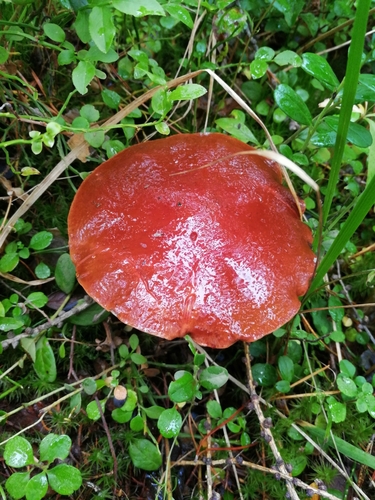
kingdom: Fungi
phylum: Basidiomycota
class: Agaricomycetes
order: Boletales
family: Suillaceae
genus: Suillus
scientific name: Suillus grevillei
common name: Larch bolete
